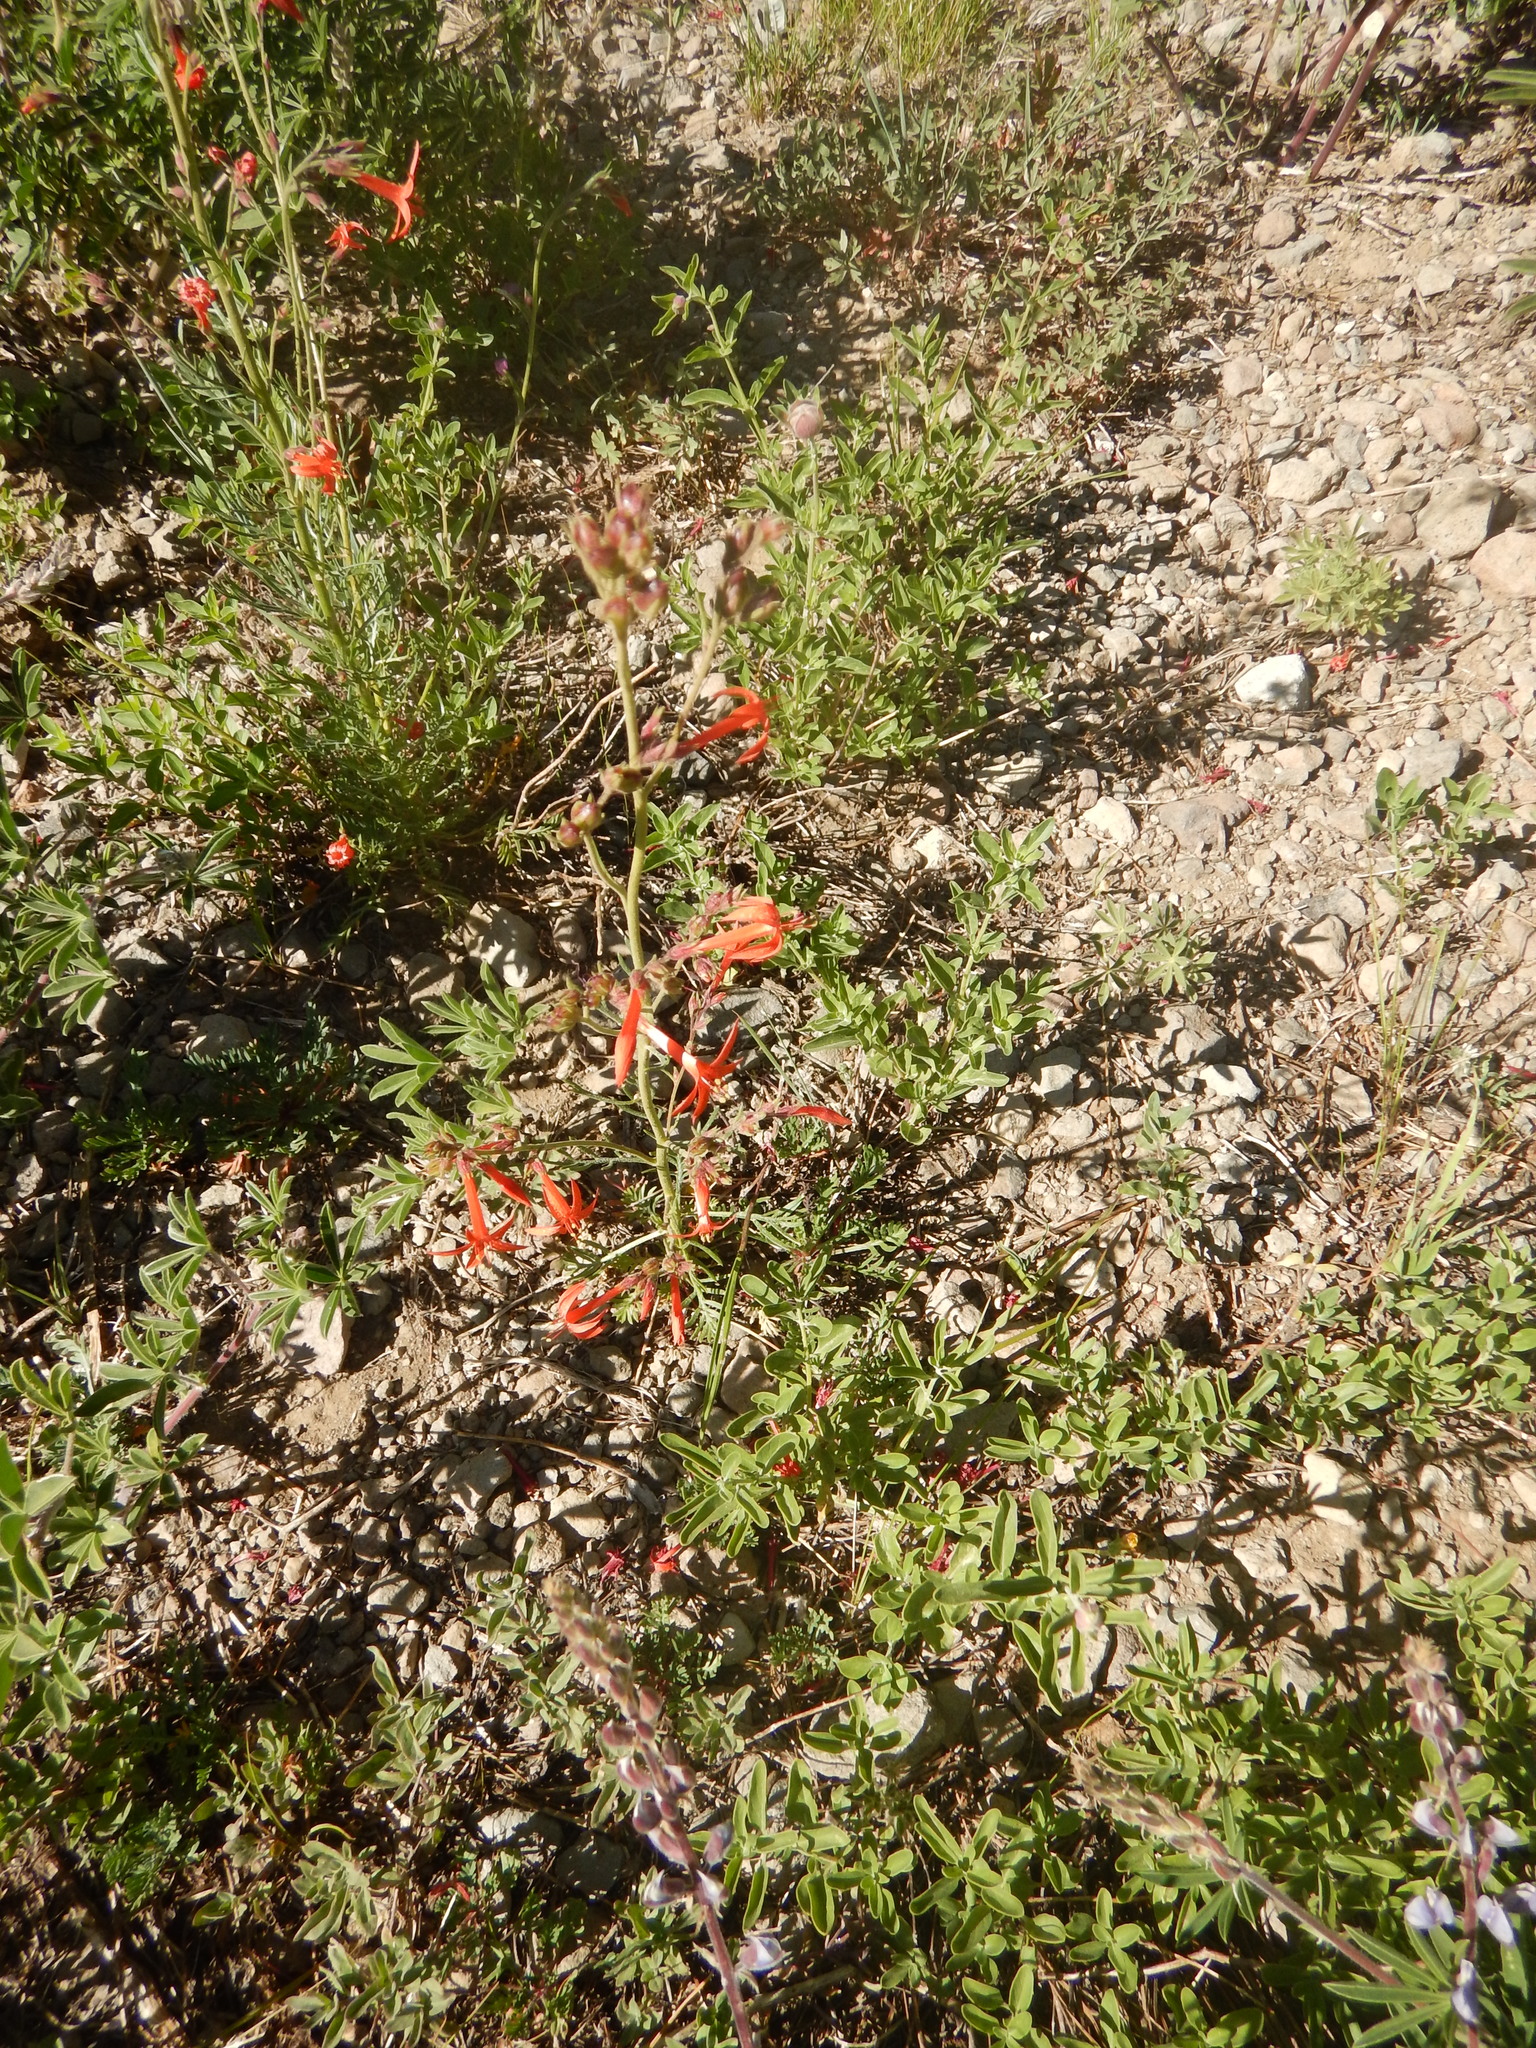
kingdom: Plantae
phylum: Tracheophyta
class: Magnoliopsida
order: Ericales
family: Polemoniaceae
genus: Ipomopsis
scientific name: Ipomopsis aggregata
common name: Scarlet gilia
